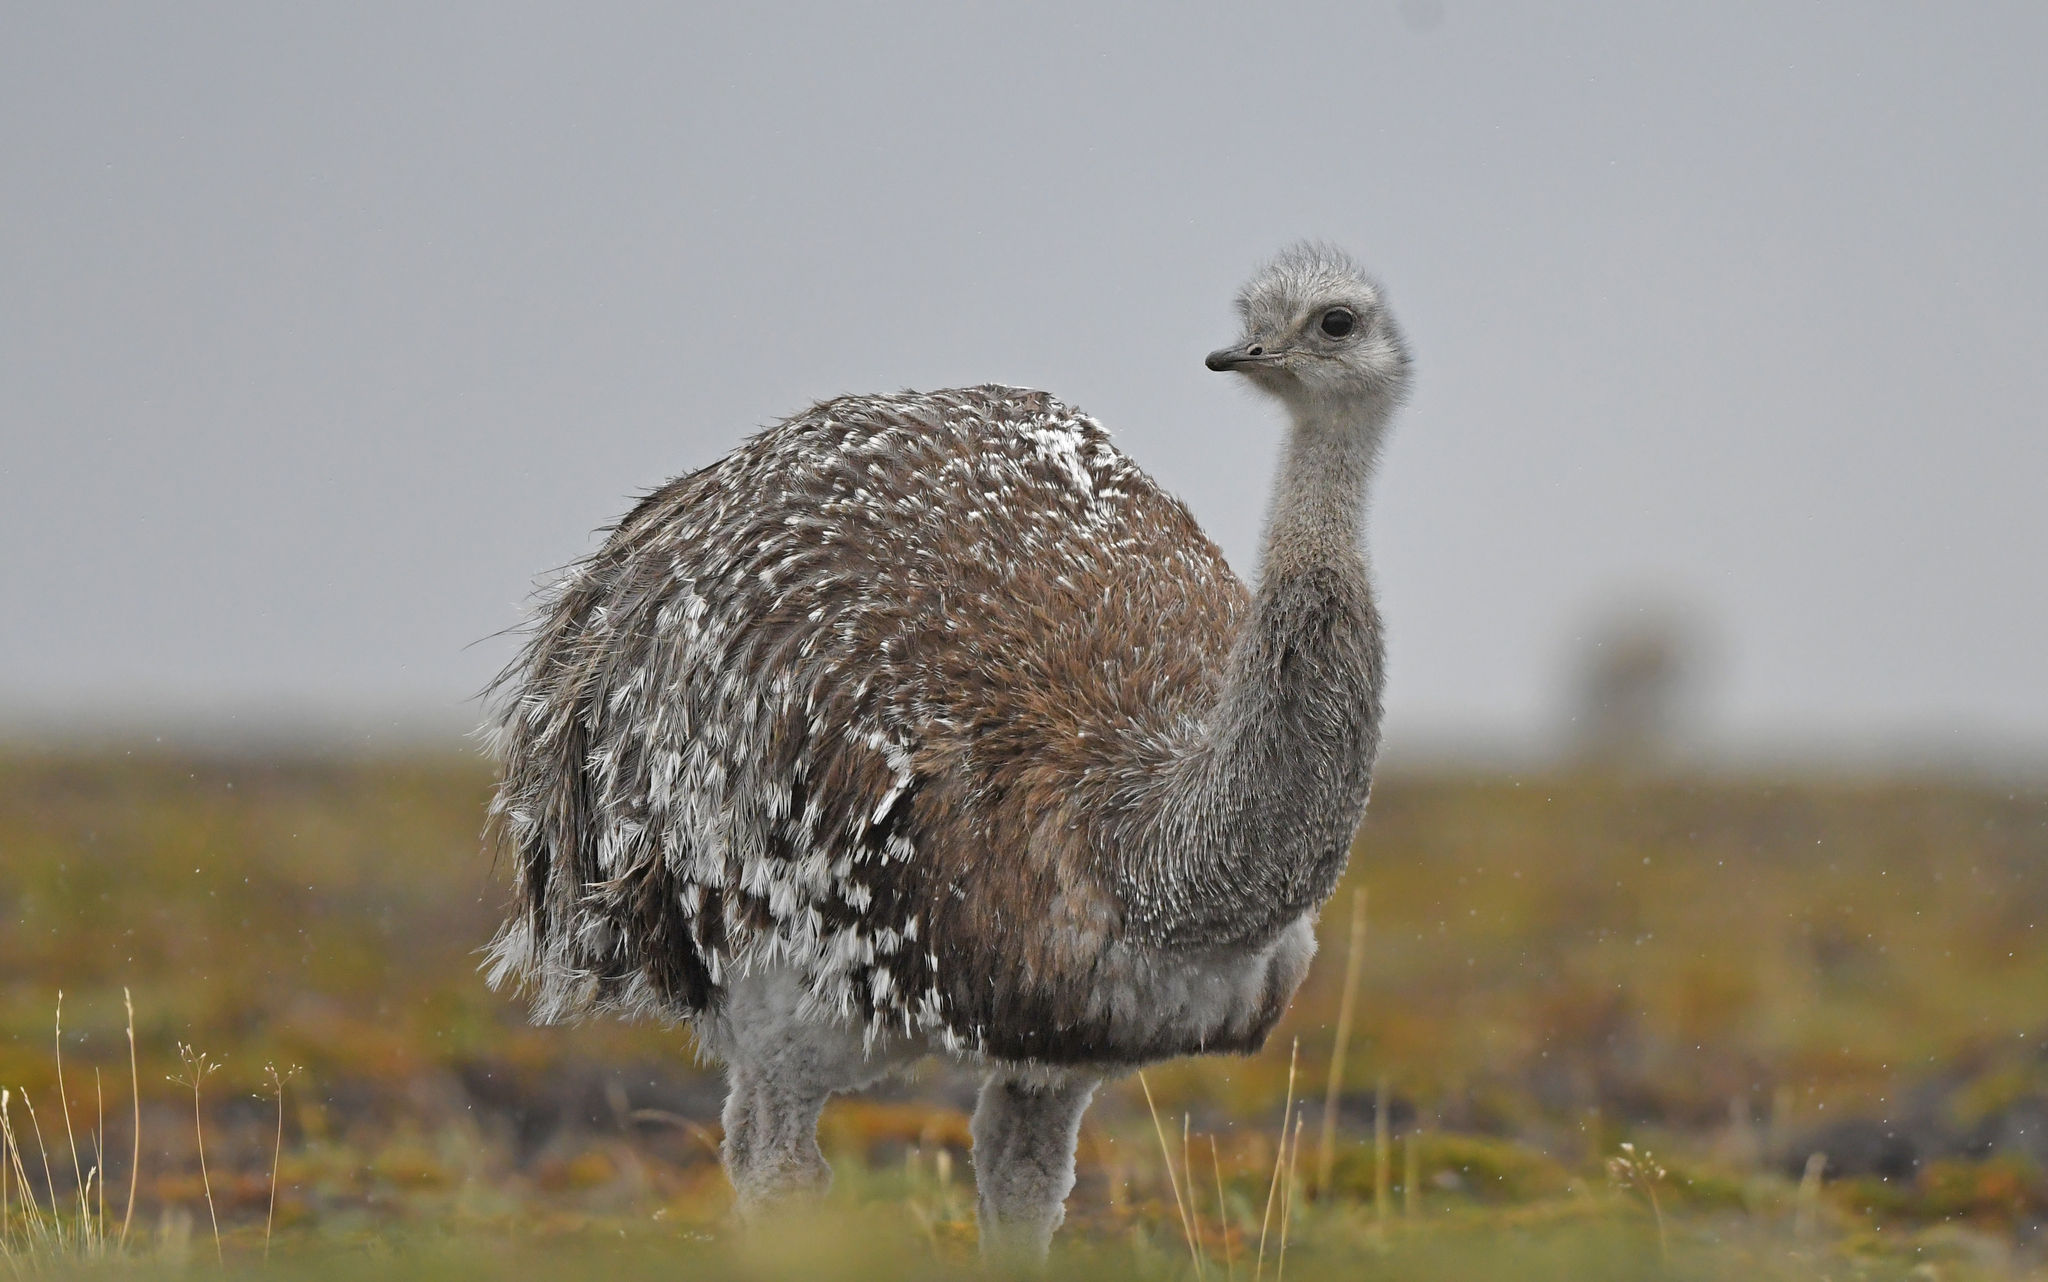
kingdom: Animalia
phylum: Chordata
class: Aves
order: Rheiformes
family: Rheidae
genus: Rhea
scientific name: Rhea pennata
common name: Lesser rhea
